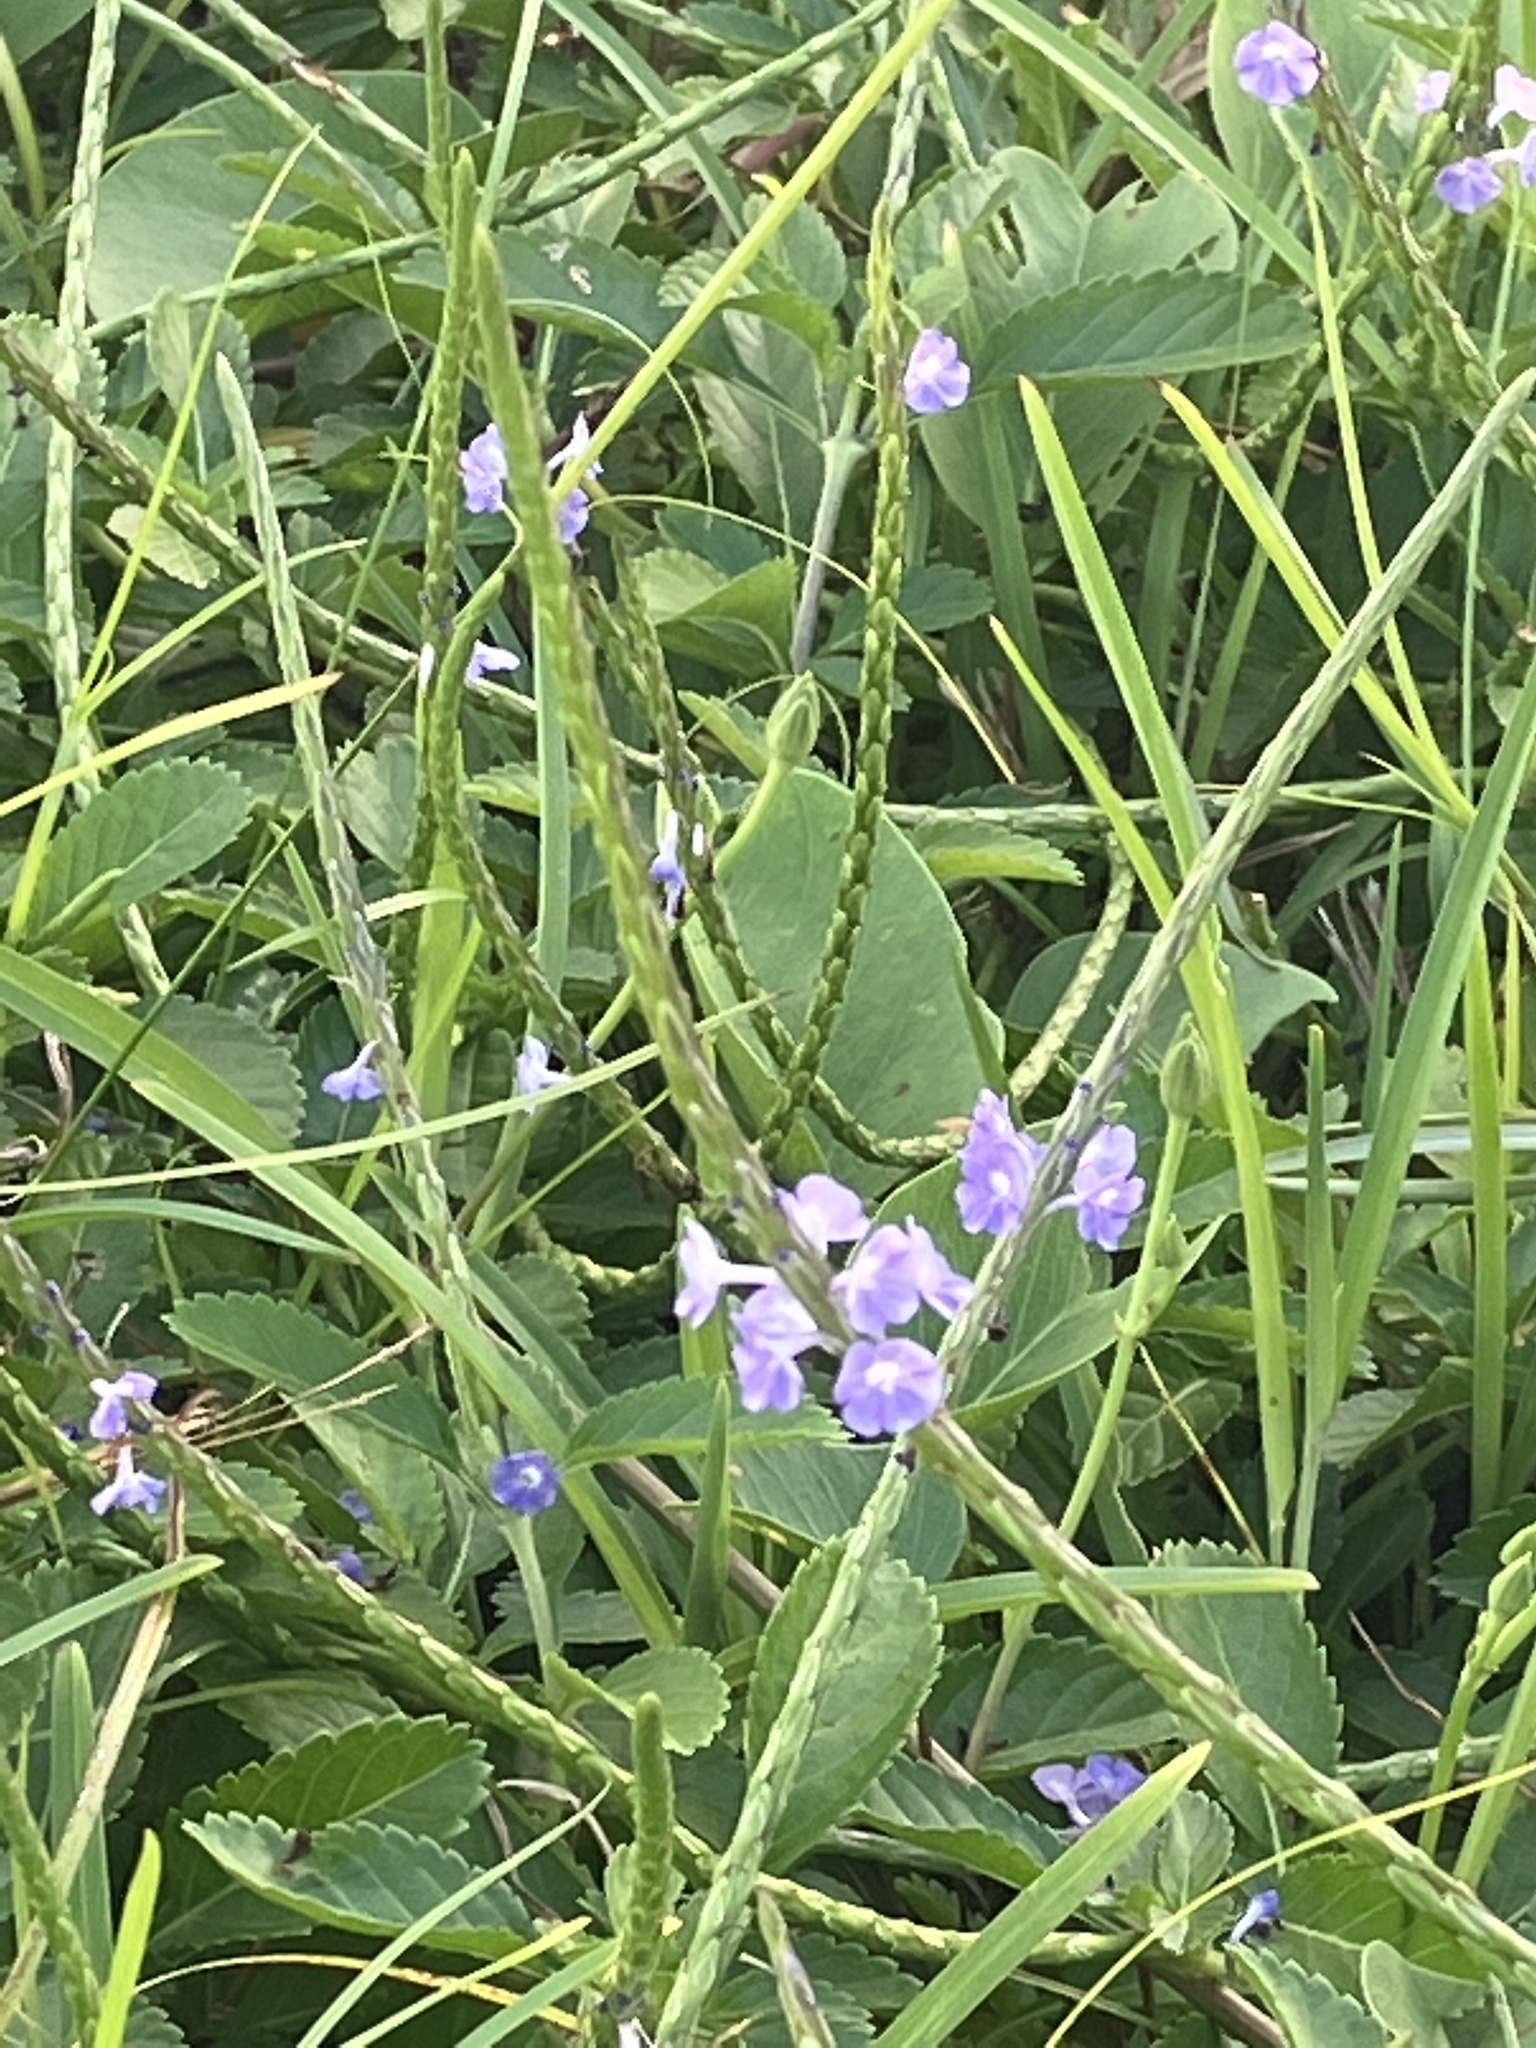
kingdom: Plantae
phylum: Tracheophyta
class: Magnoliopsida
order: Lamiales
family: Verbenaceae
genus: Stachytarpheta
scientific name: Stachytarpheta jamaicensis
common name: Light-blue snakeweed
